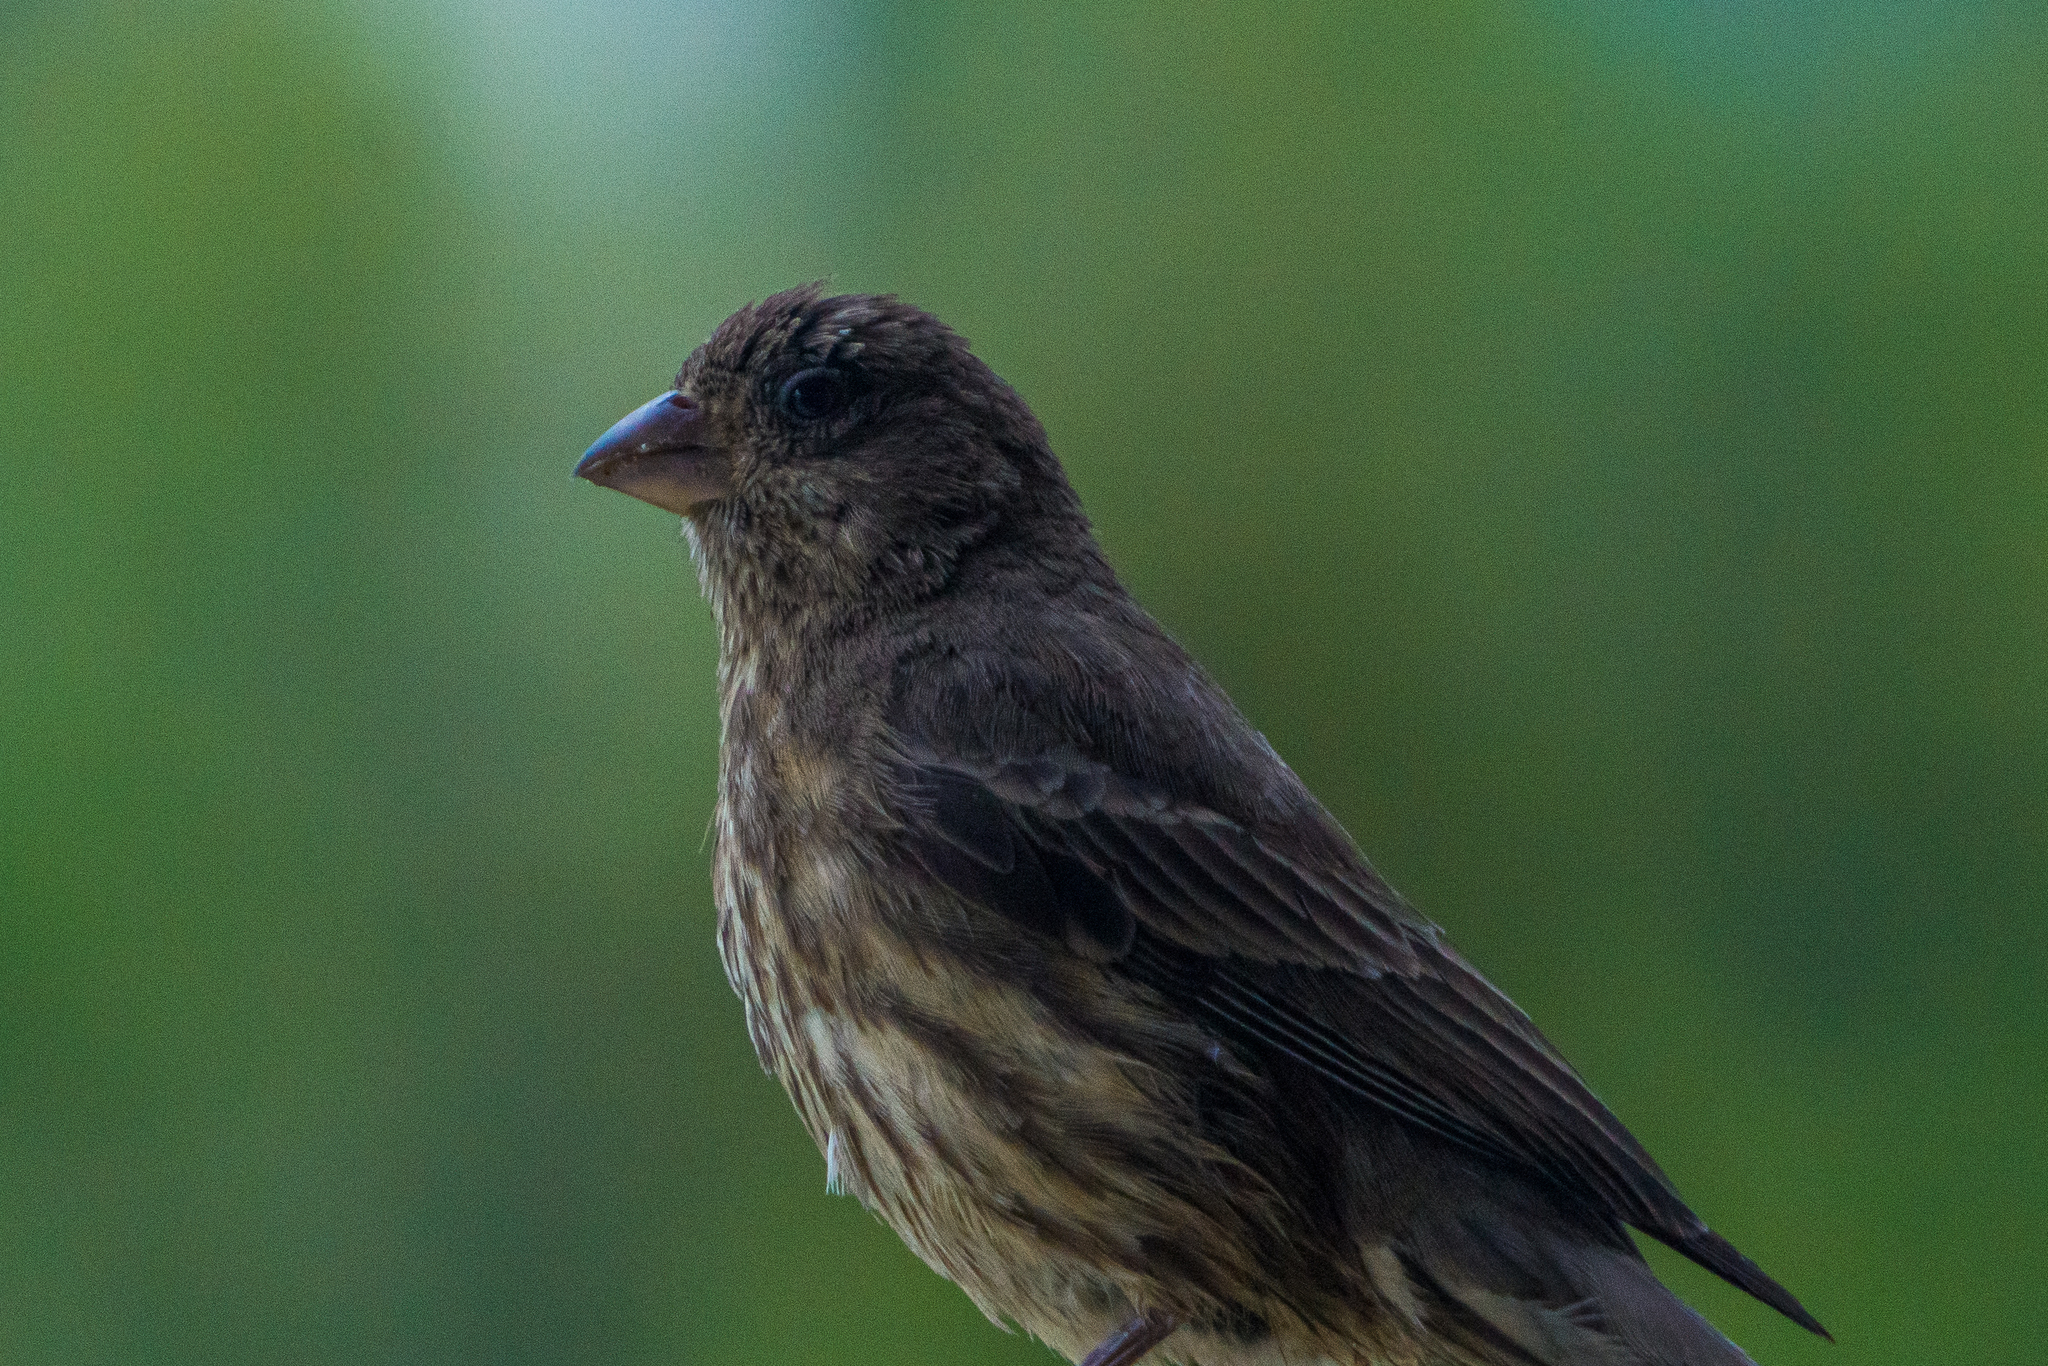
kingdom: Animalia
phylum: Chordata
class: Aves
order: Passeriformes
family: Fringillidae
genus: Haemorhous
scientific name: Haemorhous mexicanus
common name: House finch
